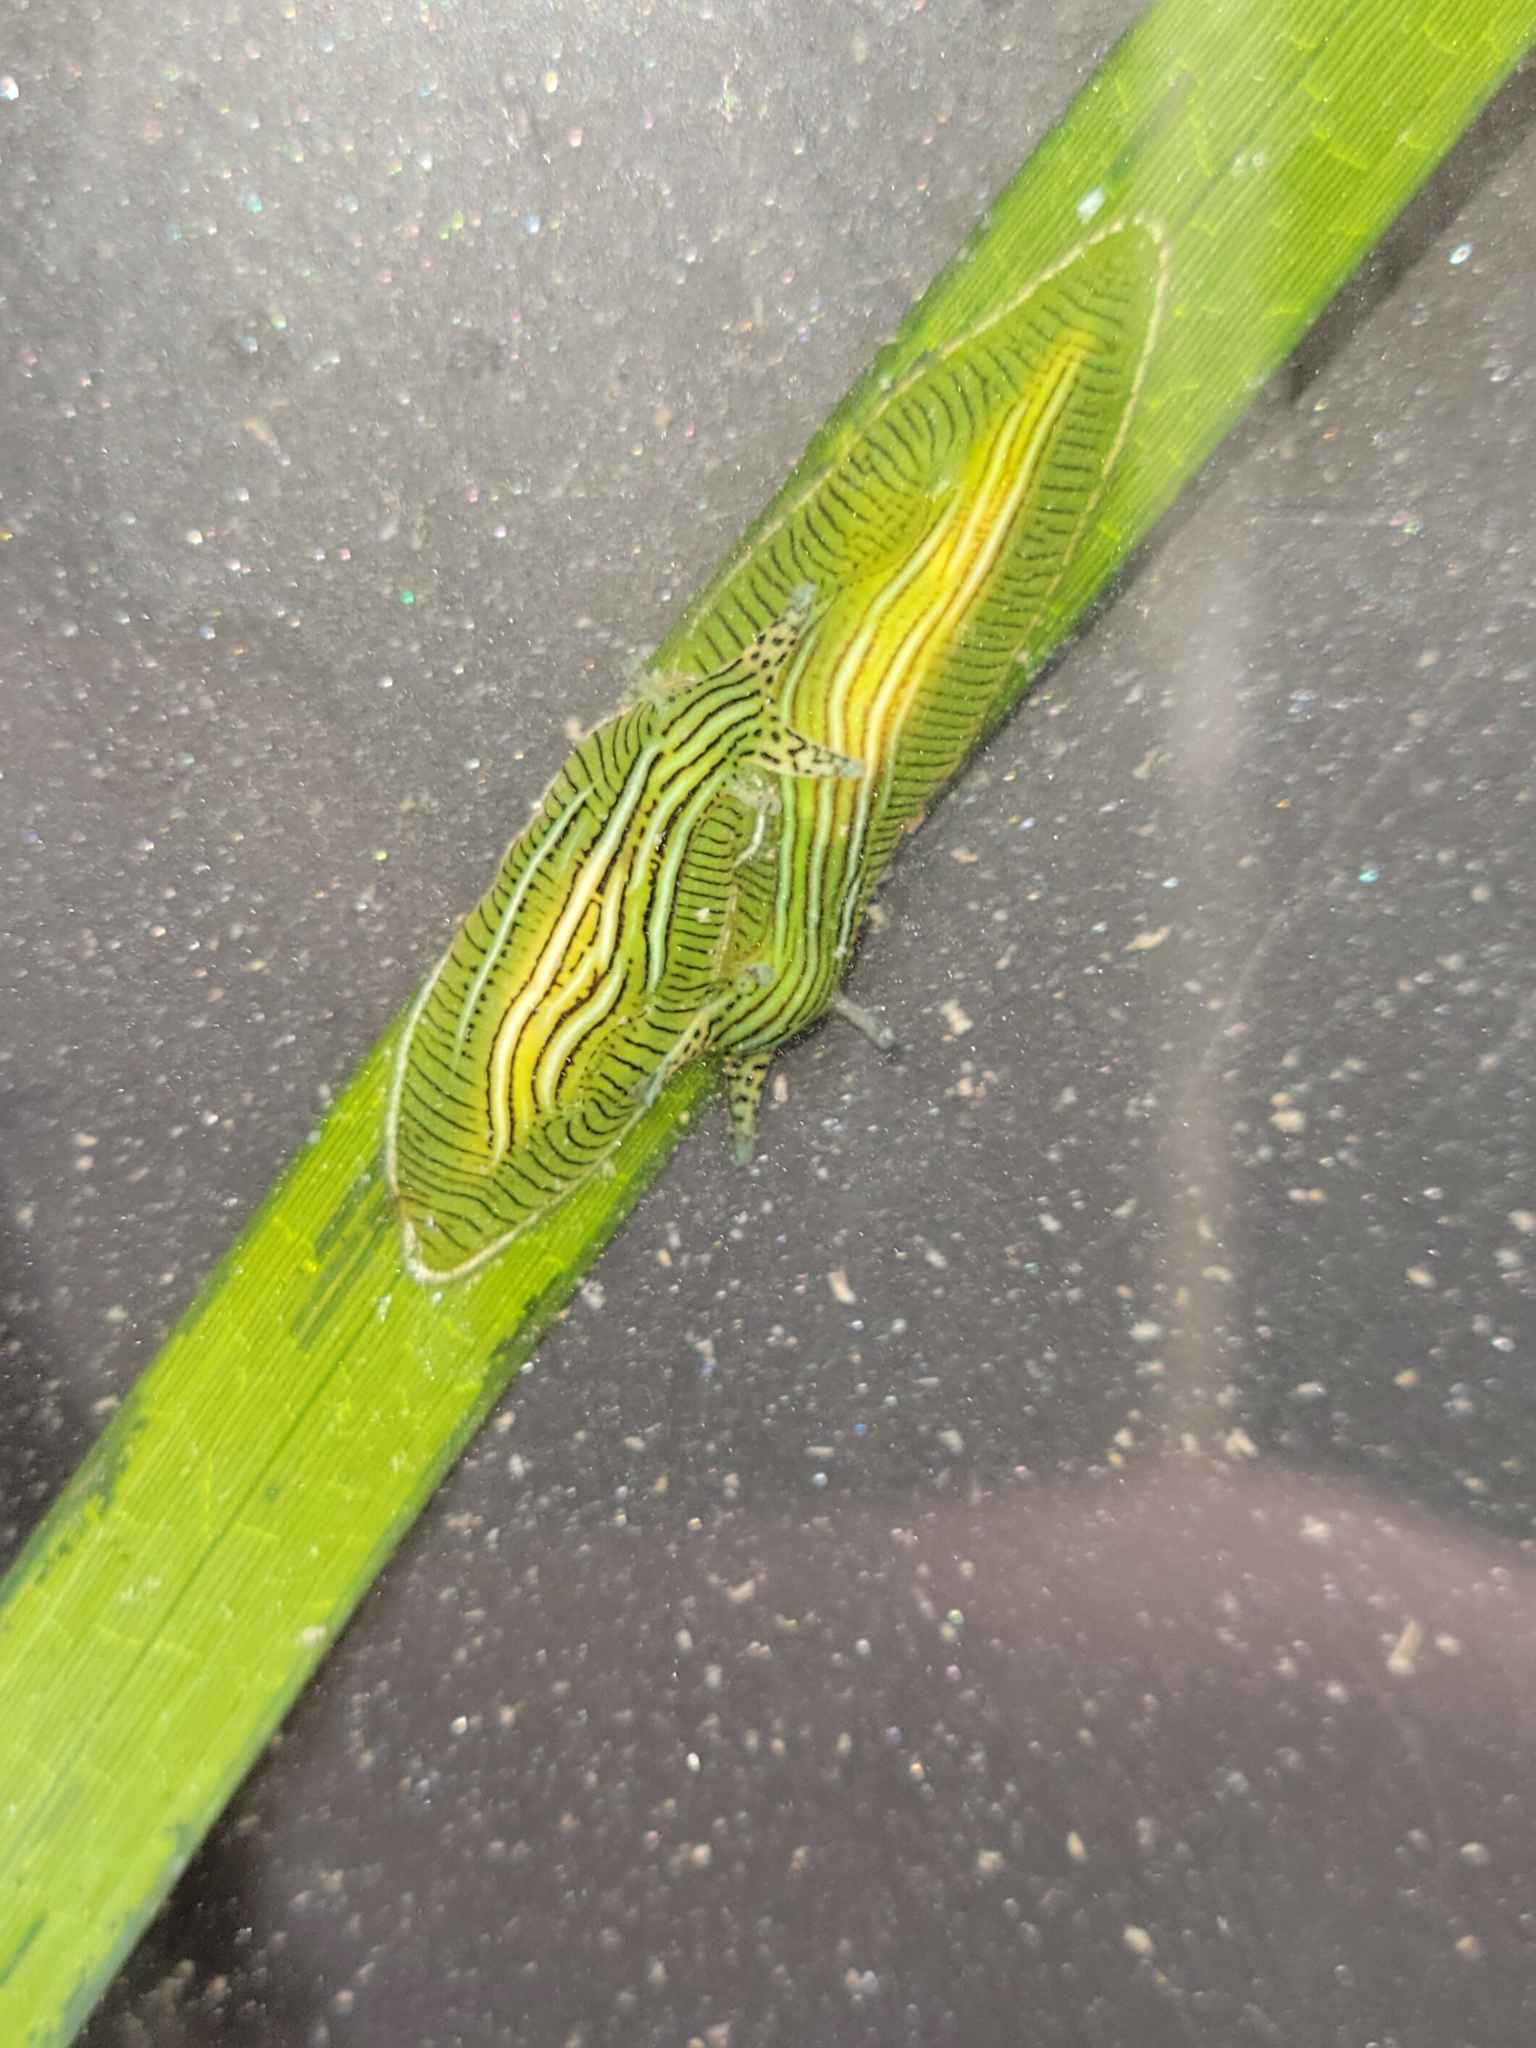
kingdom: Animalia
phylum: Mollusca
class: Gastropoda
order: Aplysiida
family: Aplysiidae
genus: Phyllaplysia
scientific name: Phyllaplysia taylori
